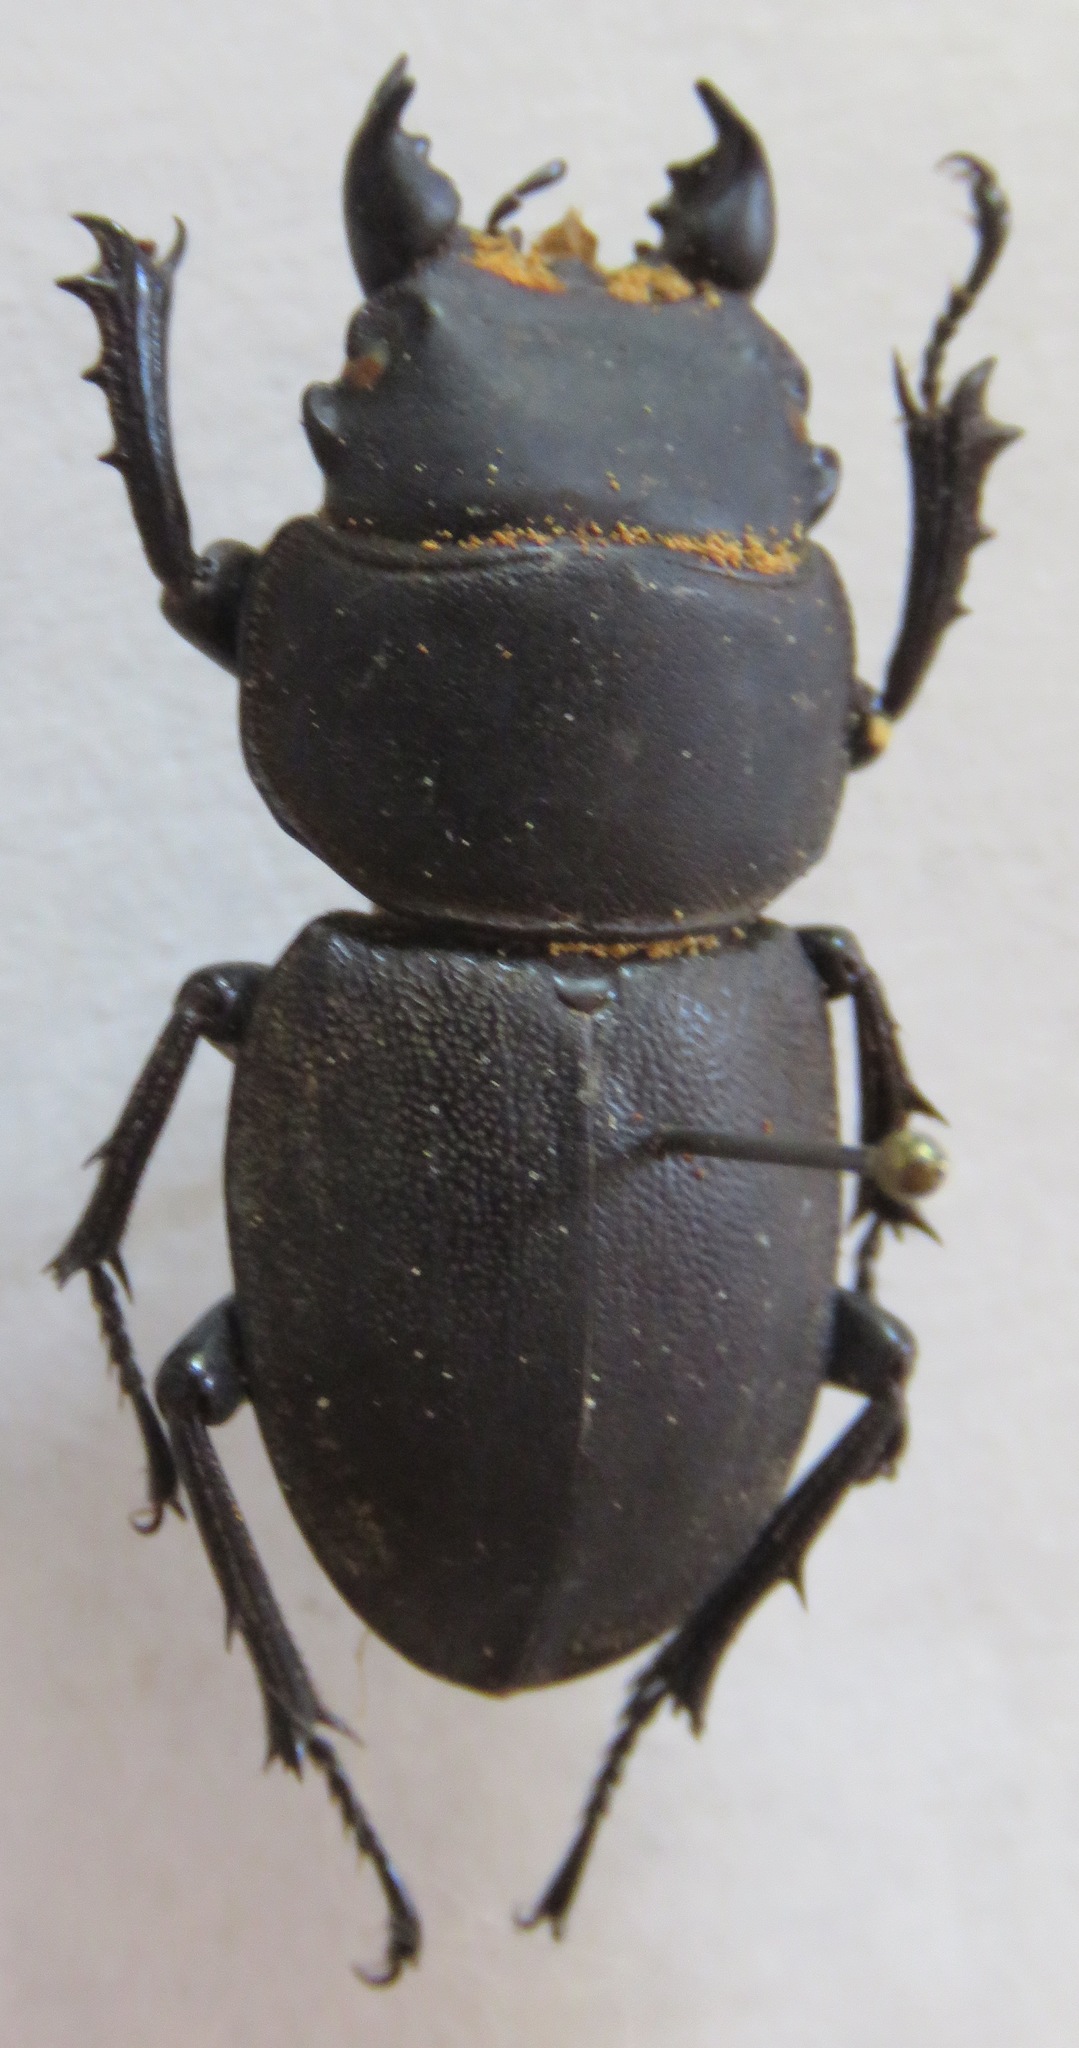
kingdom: Animalia
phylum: Arthropoda
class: Insecta
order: Coleoptera
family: Lucanidae
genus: Apterodorcus
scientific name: Apterodorcus bacchus
